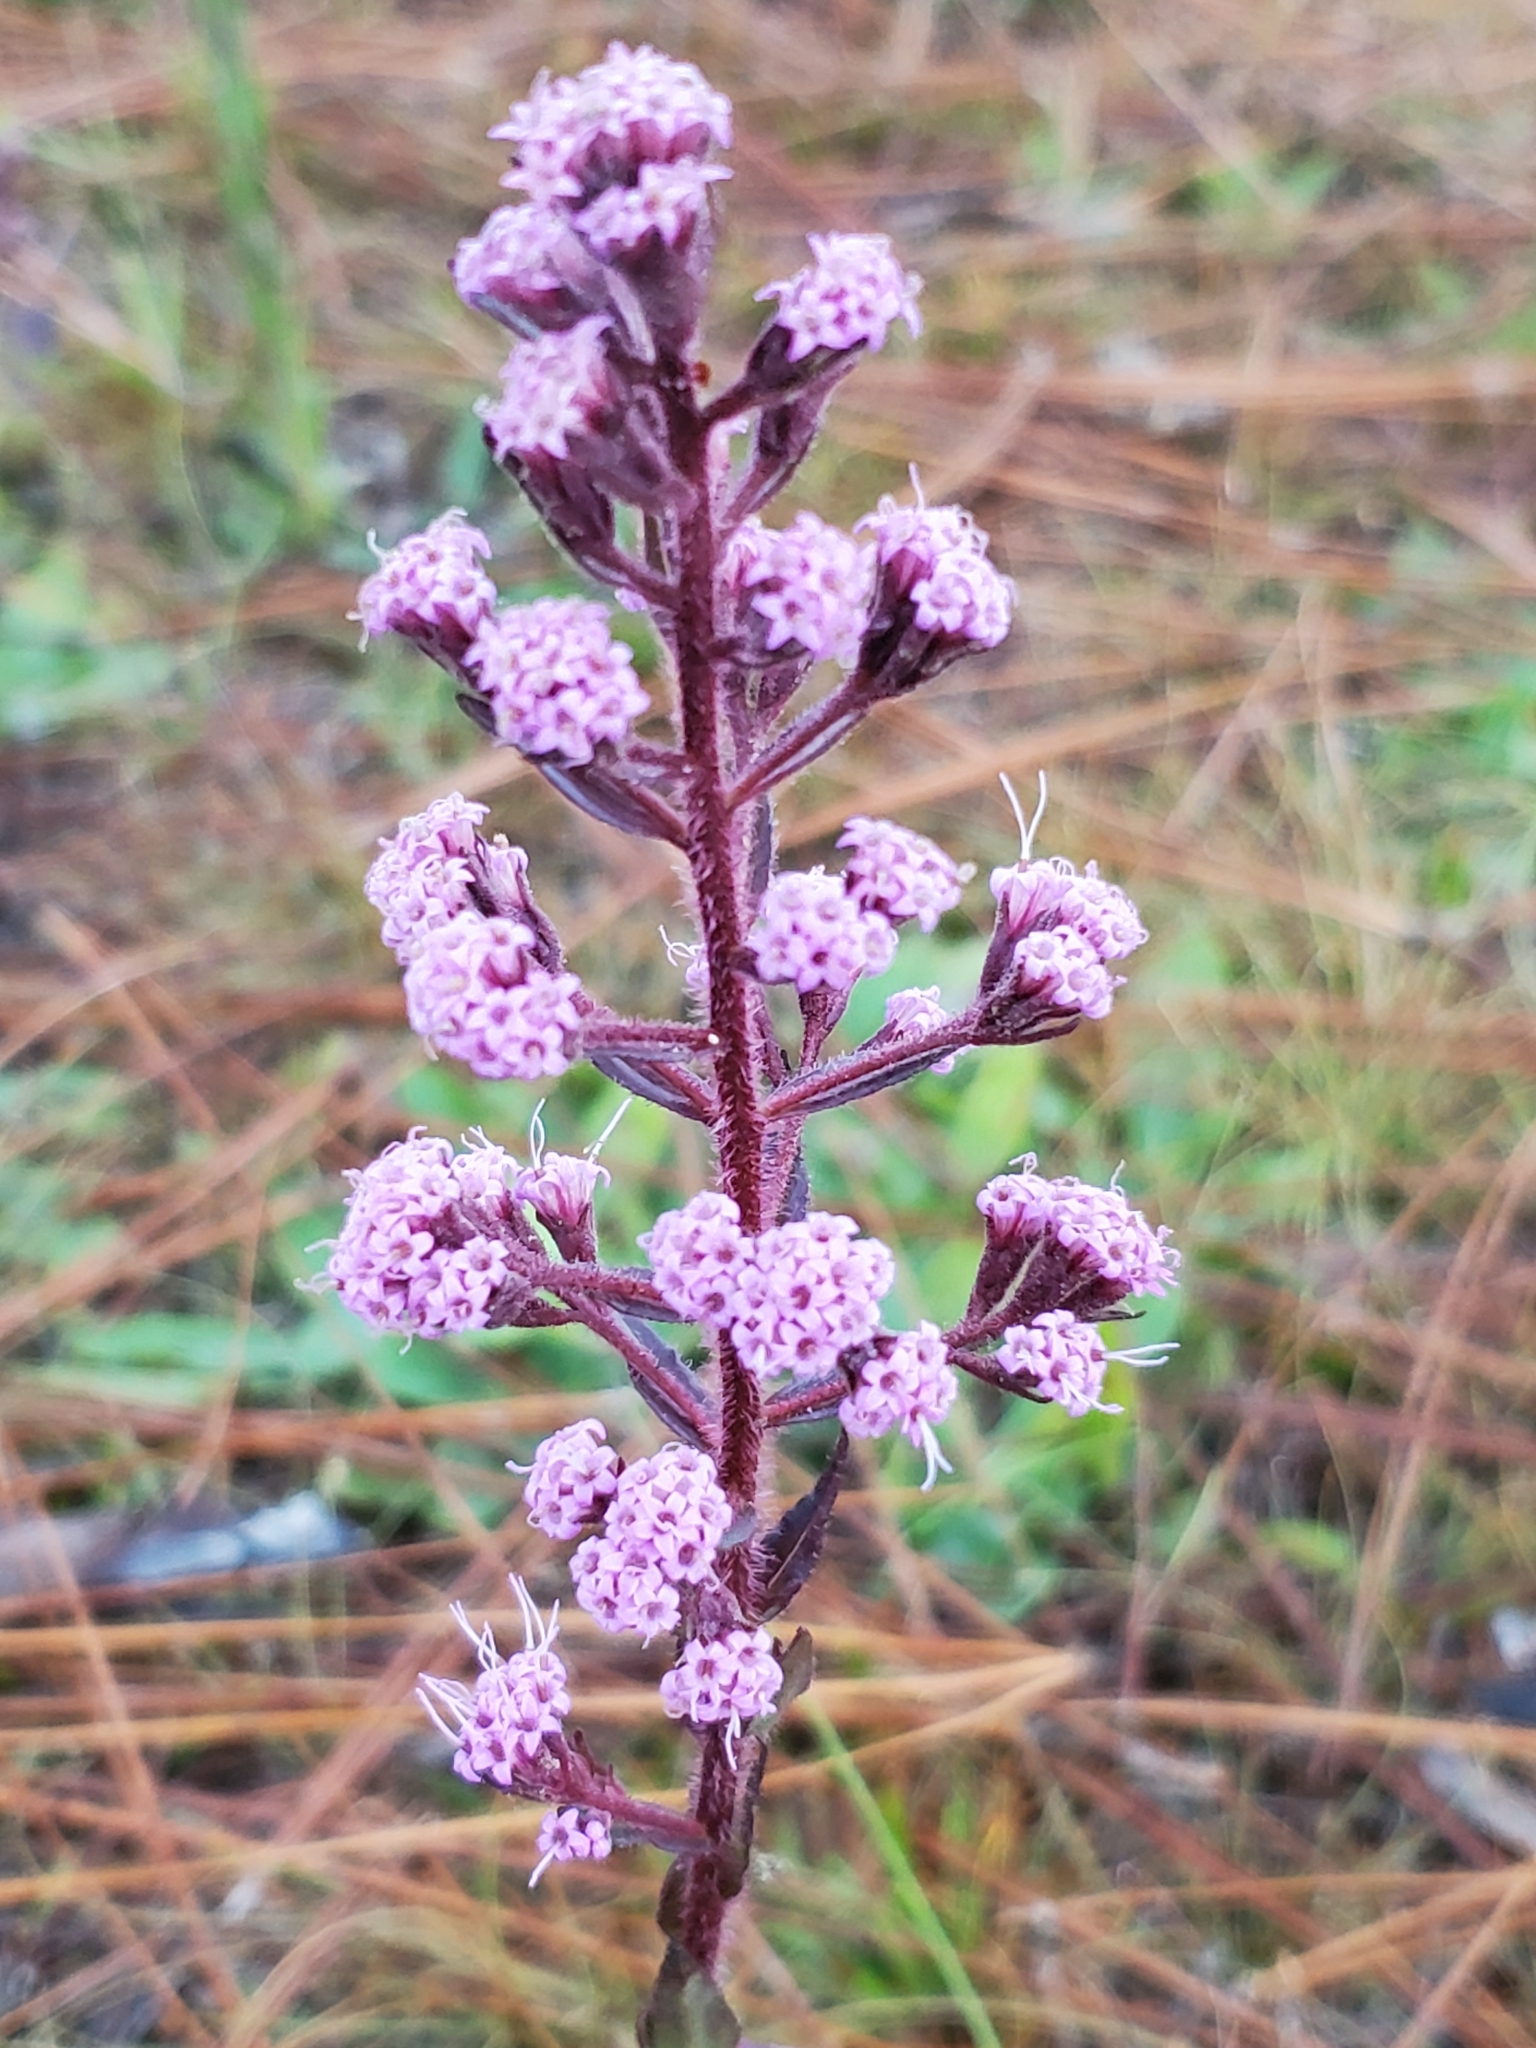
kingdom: Plantae
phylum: Tracheophyta
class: Magnoliopsida
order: Asterales
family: Asteraceae
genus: Carphephorus
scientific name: Carphephorus paniculatus
